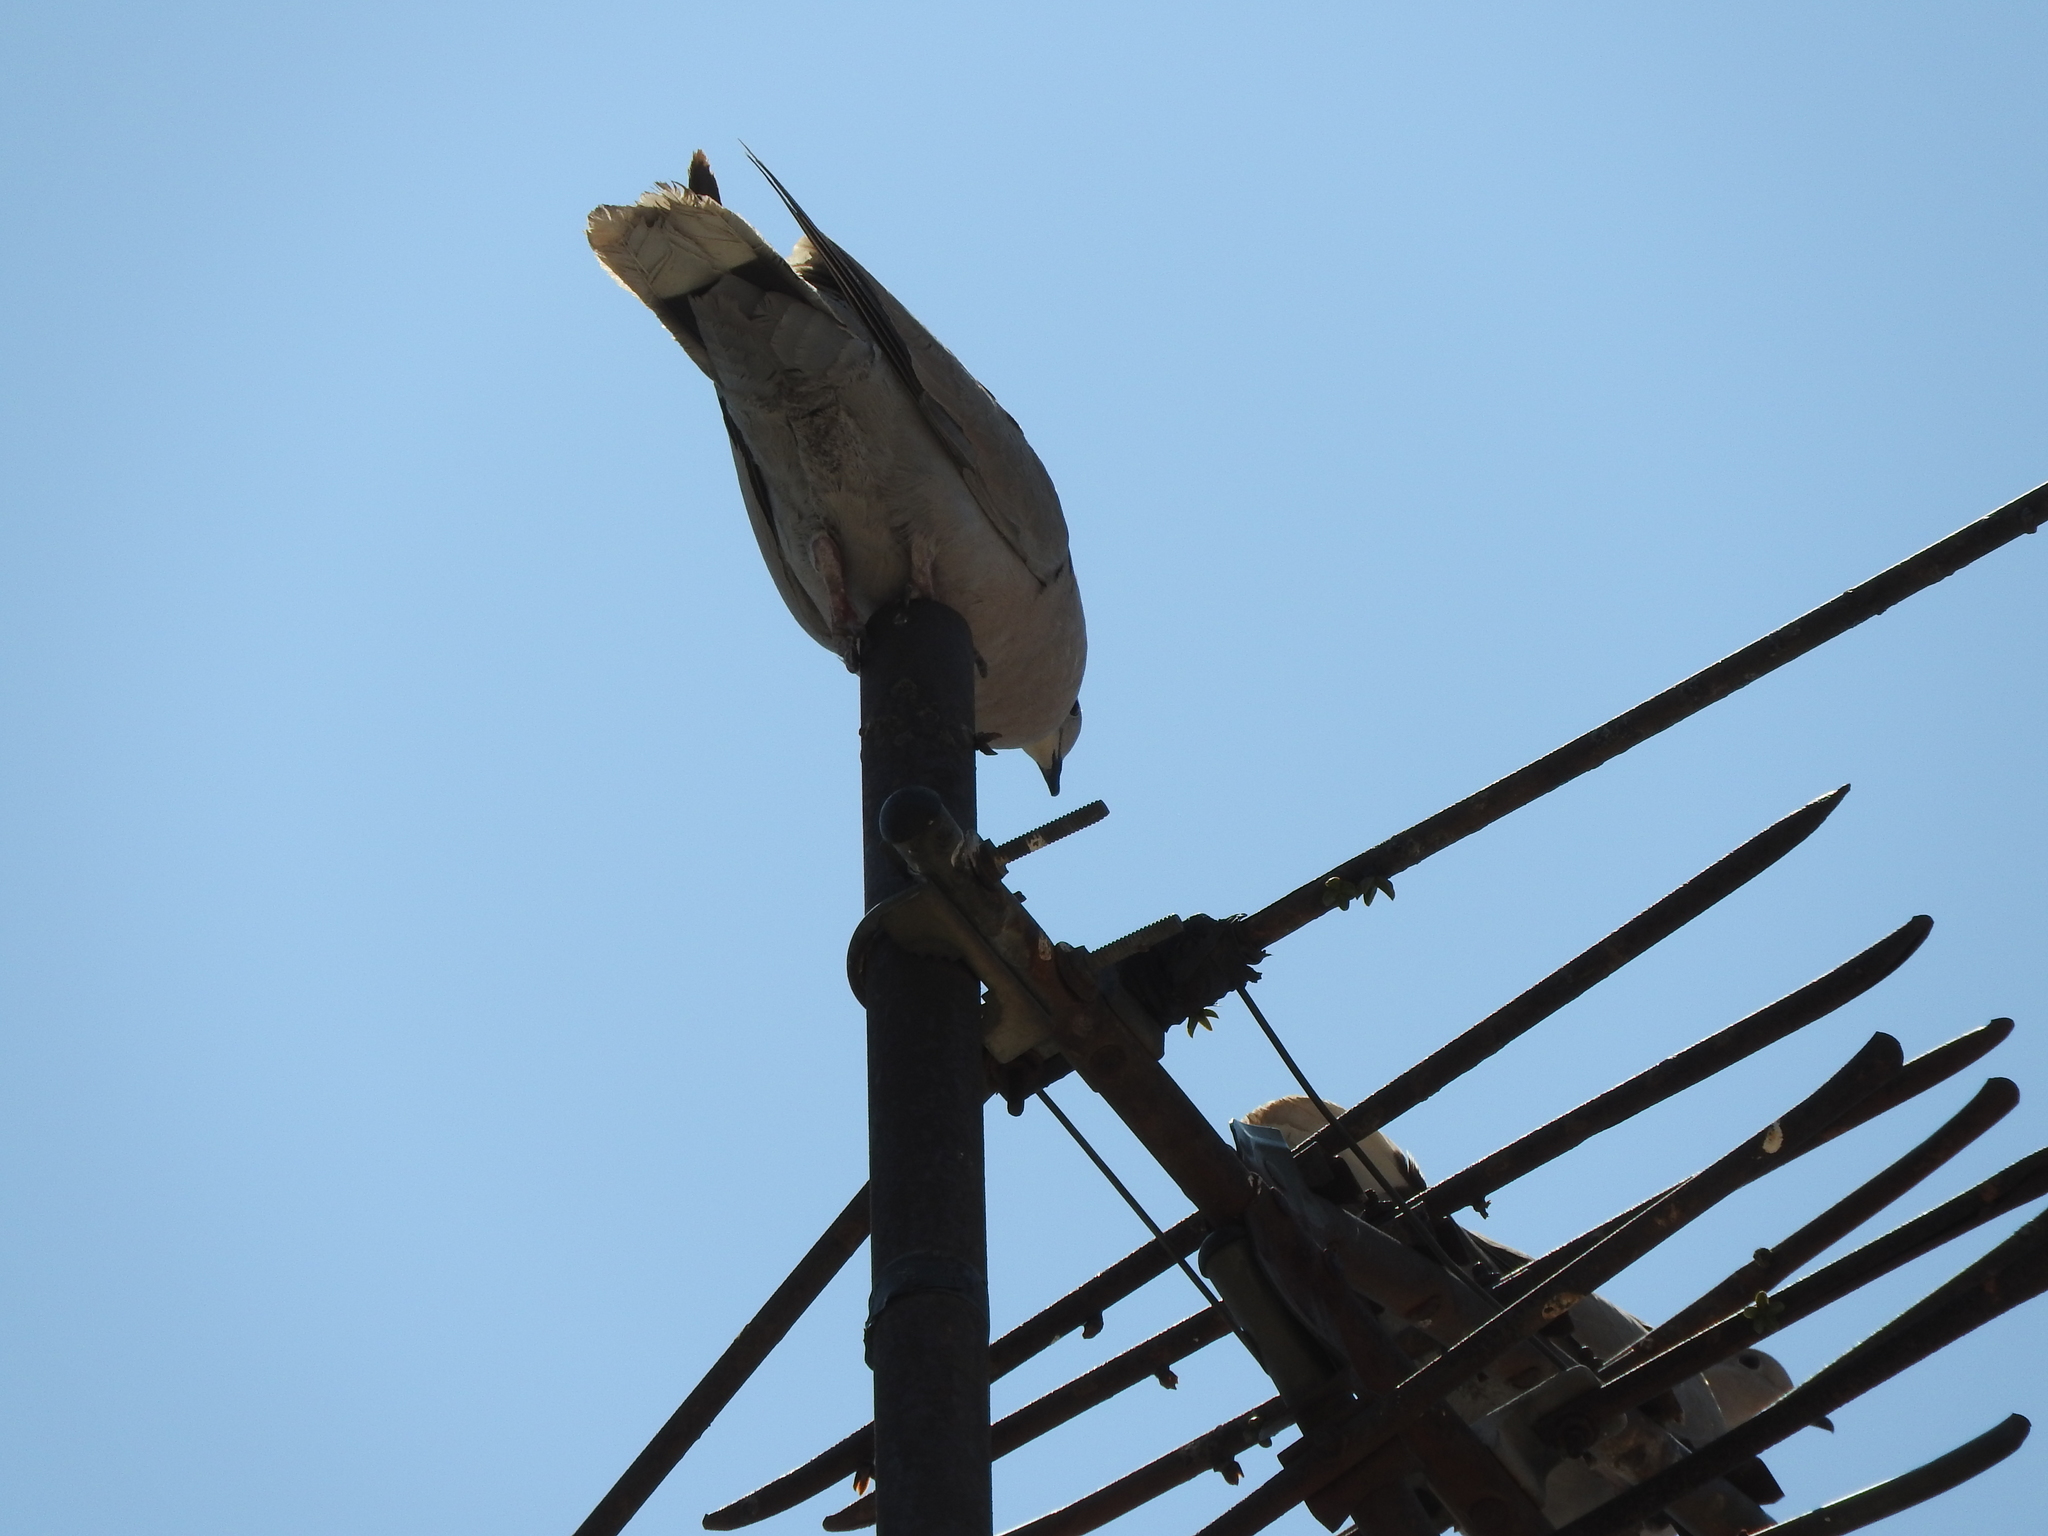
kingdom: Animalia
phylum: Chordata
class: Aves
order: Columbiformes
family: Columbidae
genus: Streptopelia
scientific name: Streptopelia decaocto
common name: Eurasian collared dove
